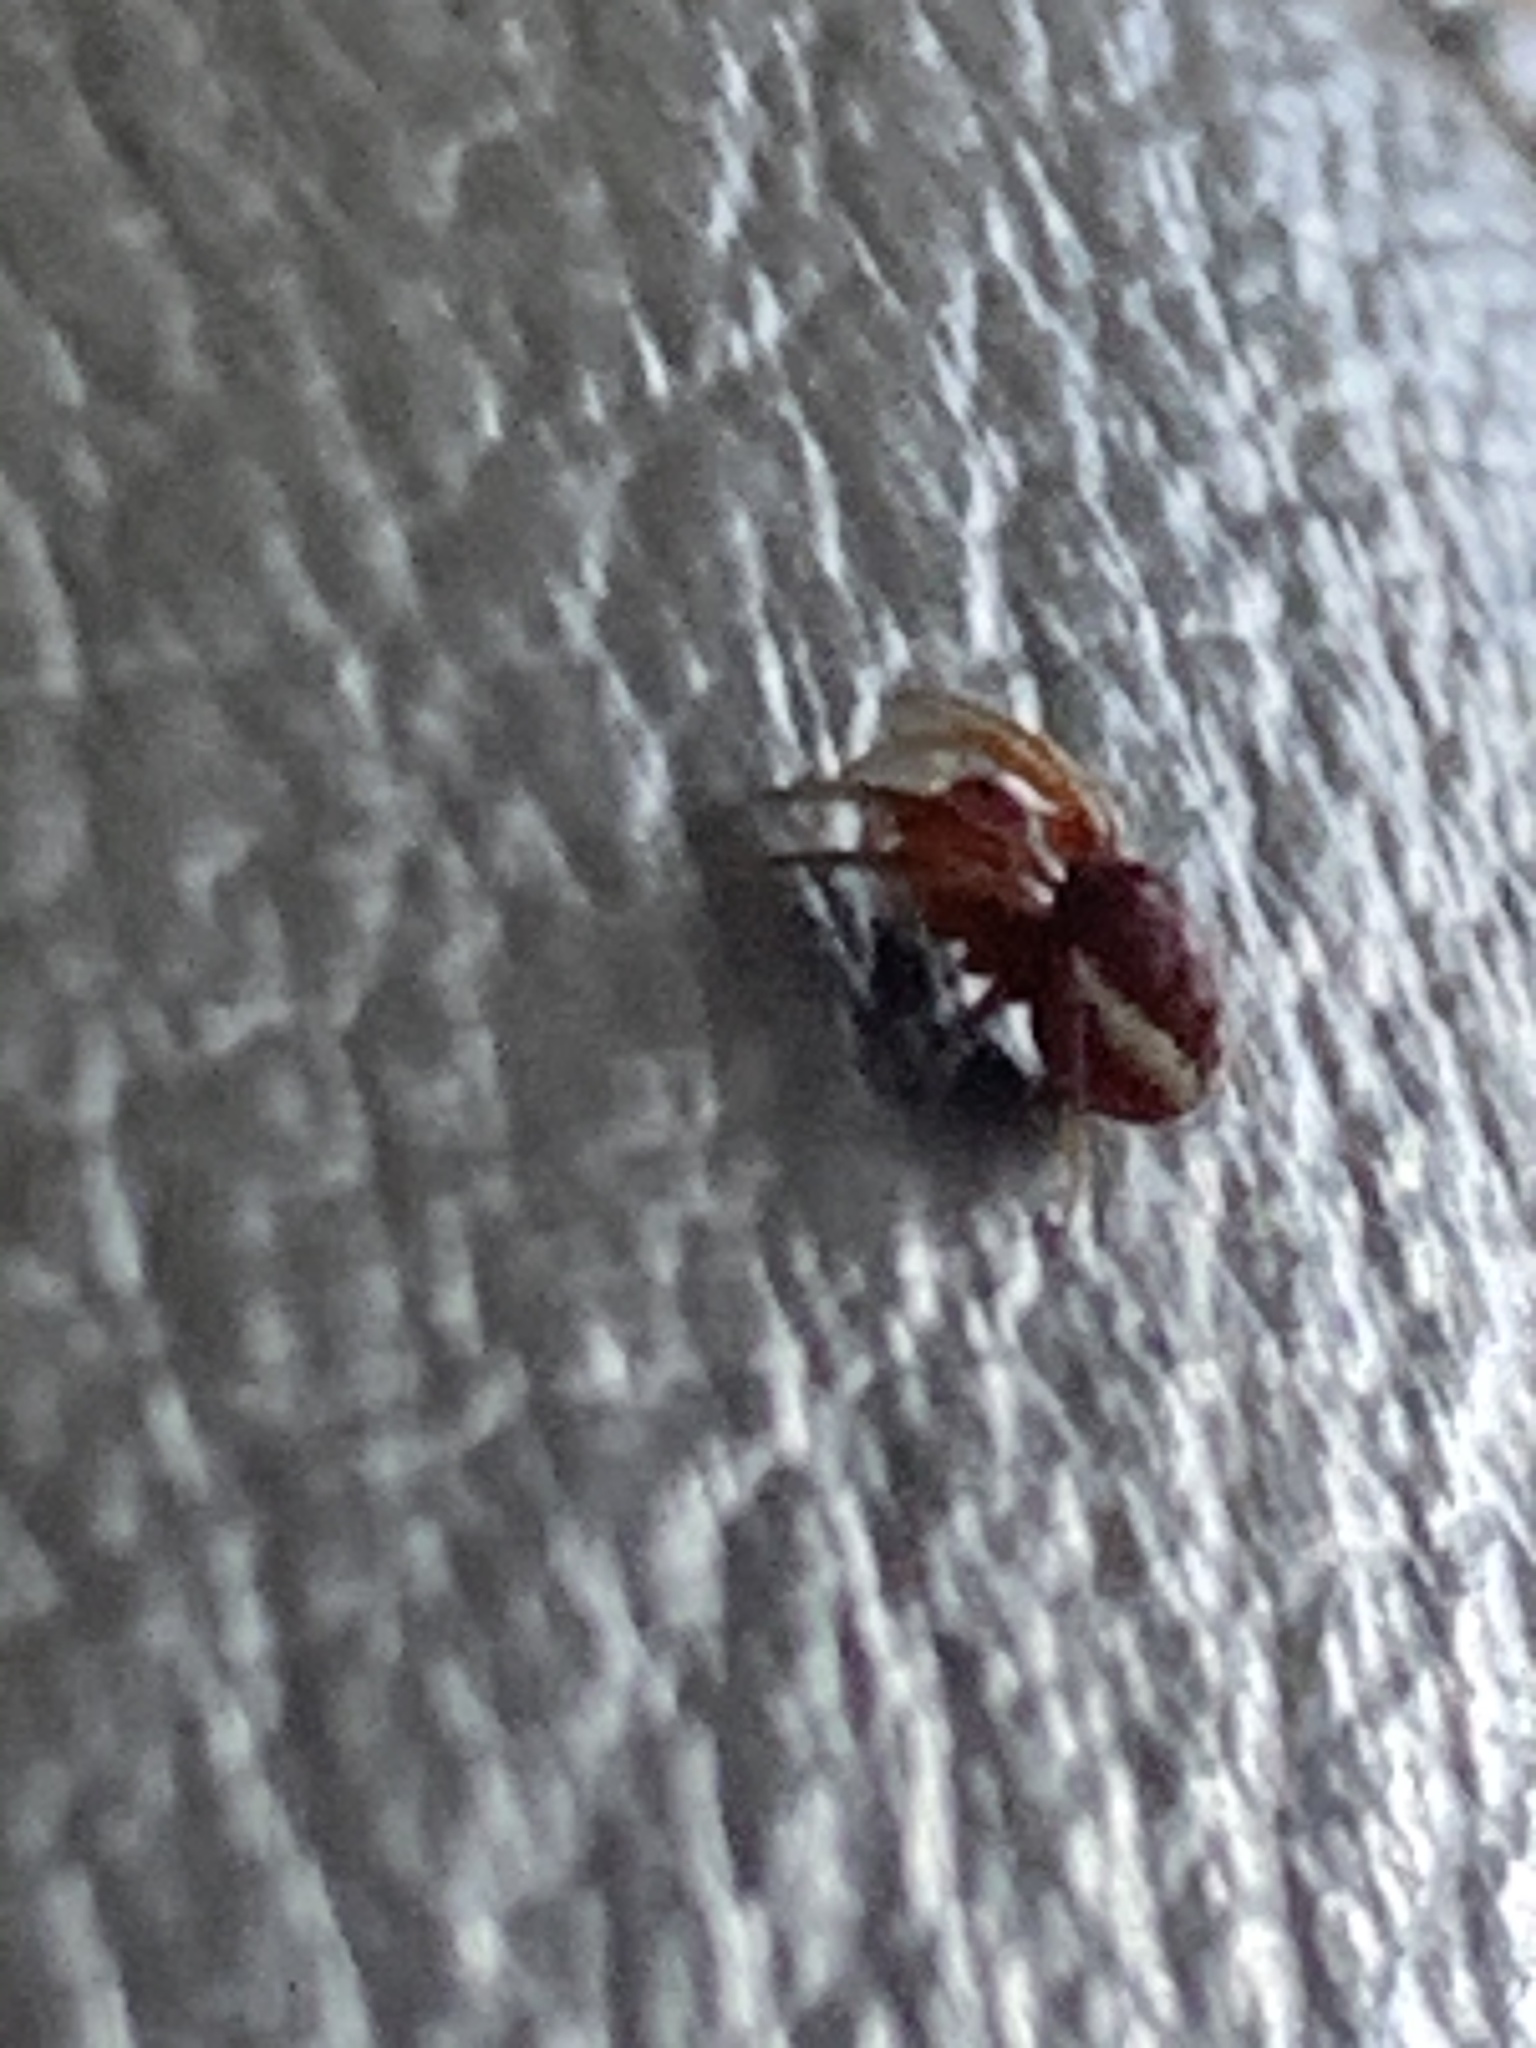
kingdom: Animalia
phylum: Arthropoda
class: Arachnida
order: Araneae
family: Araneidae
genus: Araniella
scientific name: Araniella displicata
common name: Sixspotted orb weaver
